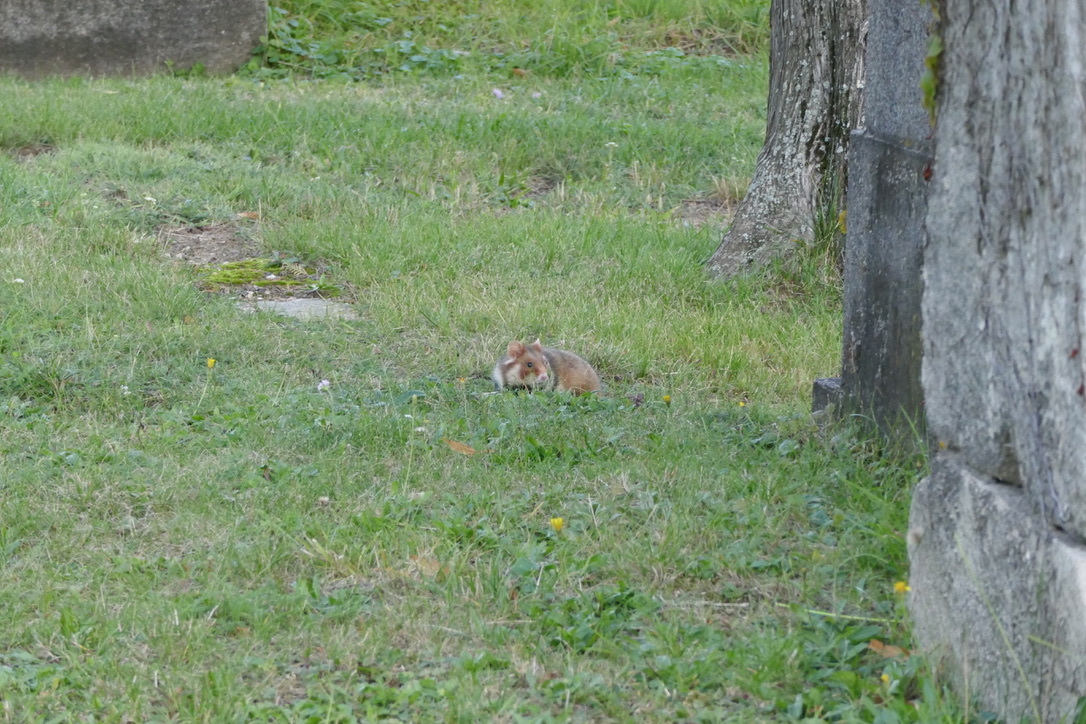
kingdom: Animalia
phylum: Chordata
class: Mammalia
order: Rodentia
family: Cricetidae
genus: Cricetus
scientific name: Cricetus cricetus
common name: Common hamster
